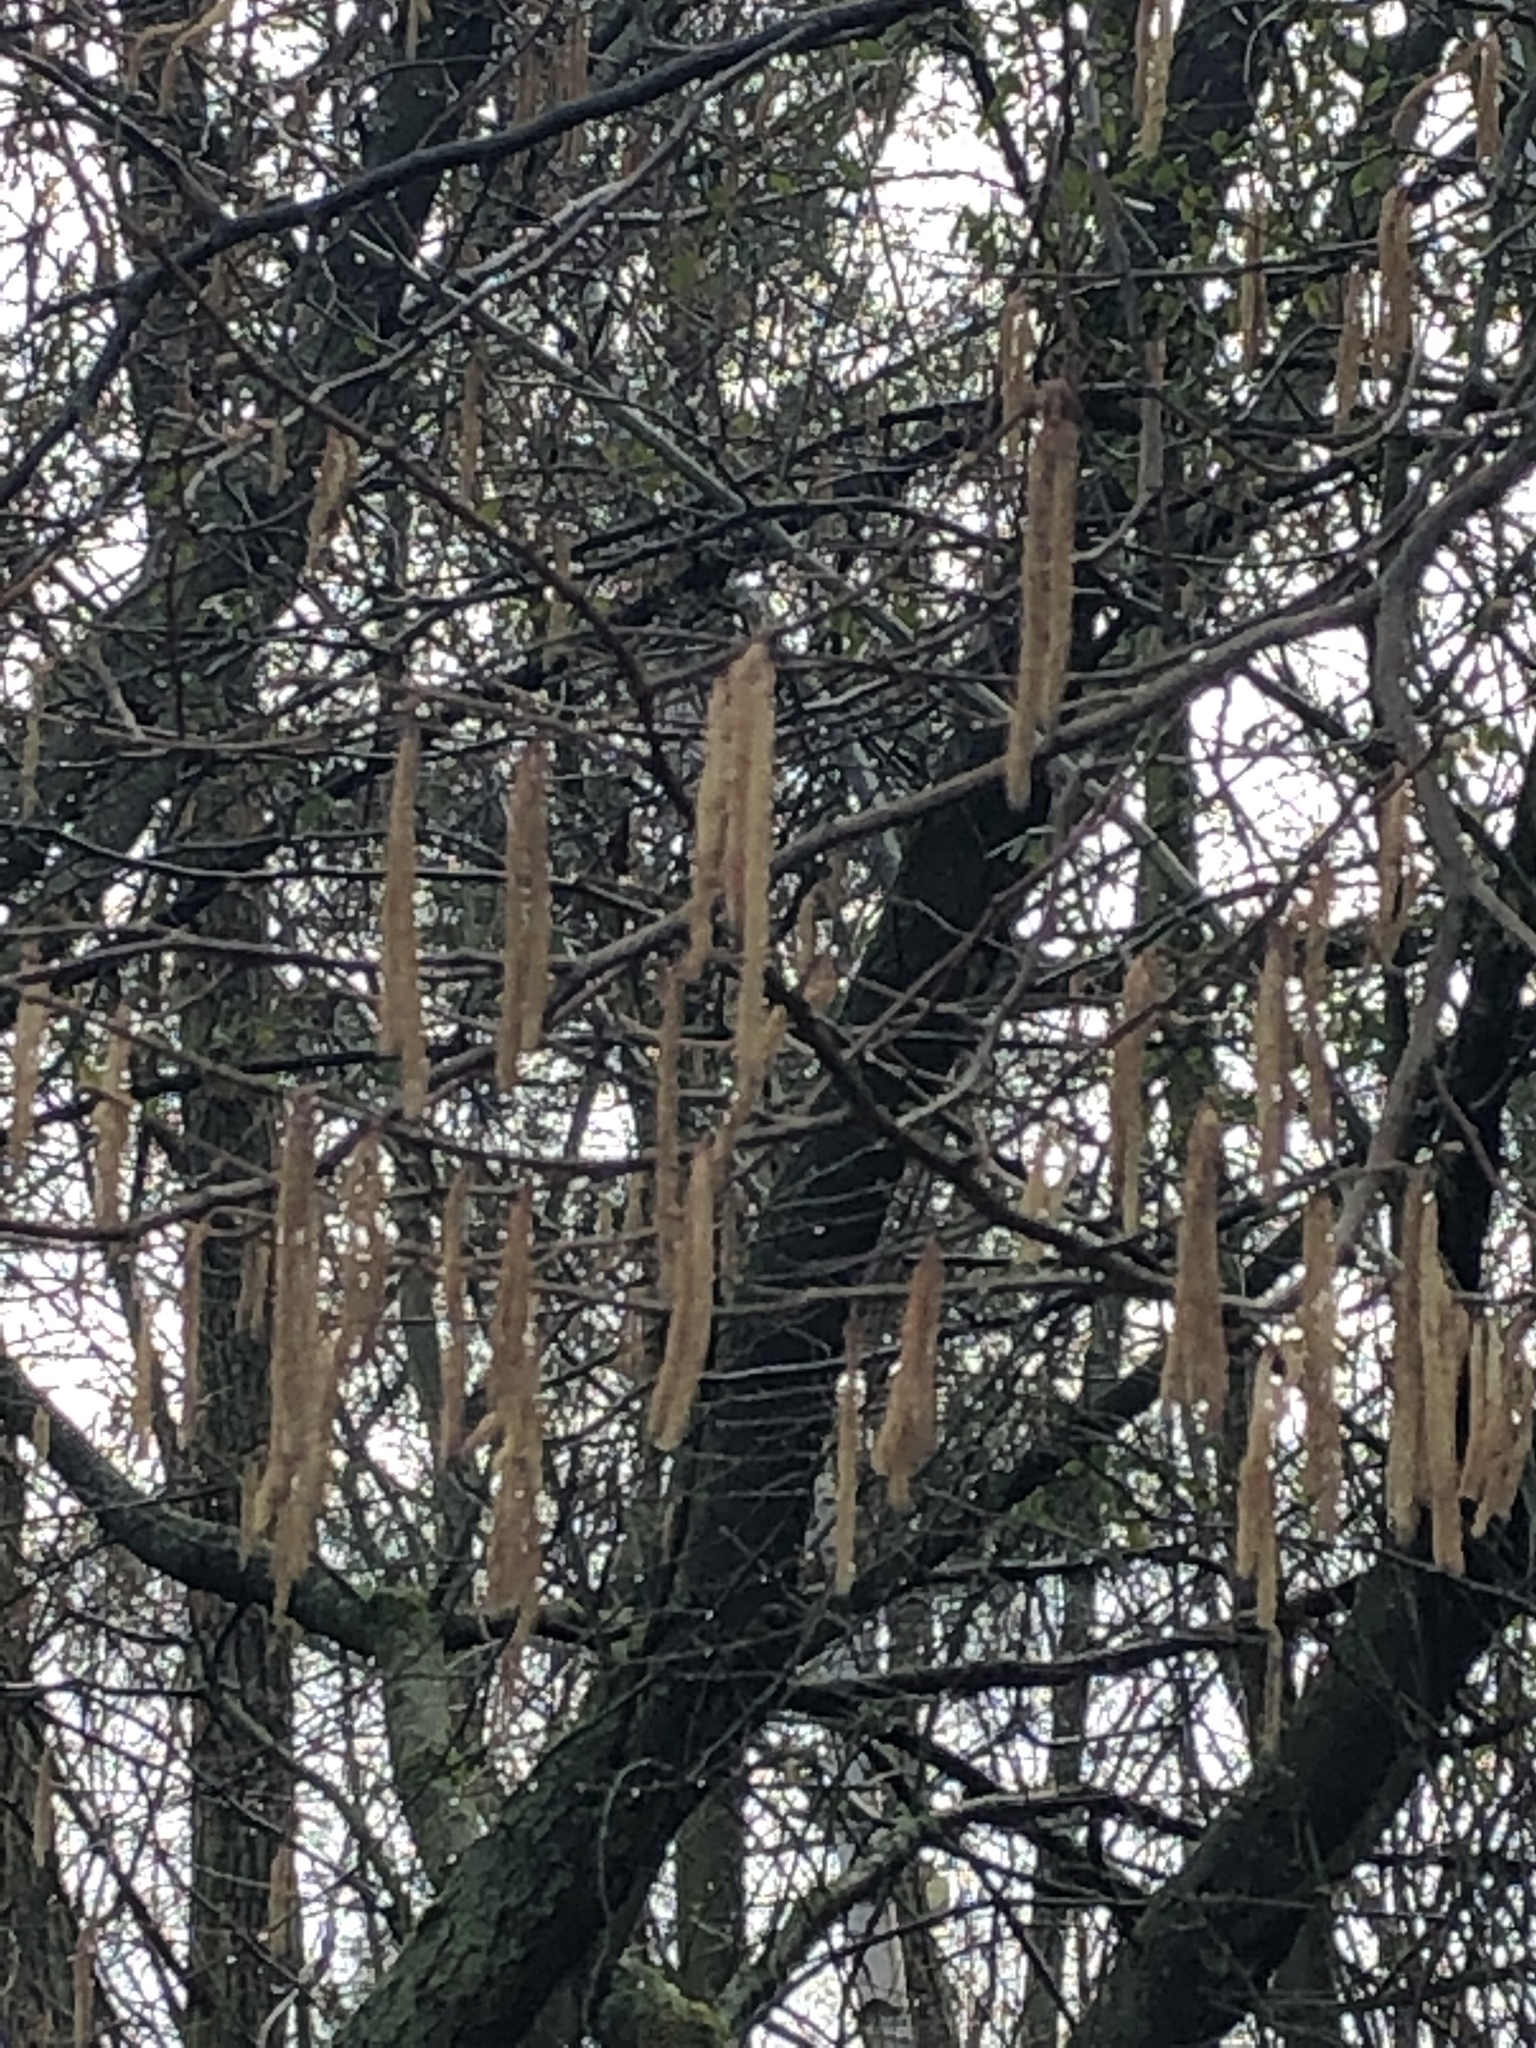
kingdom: Plantae
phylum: Tracheophyta
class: Magnoliopsida
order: Fagales
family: Betulaceae
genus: Corylus
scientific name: Corylus avellana
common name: European hazel
